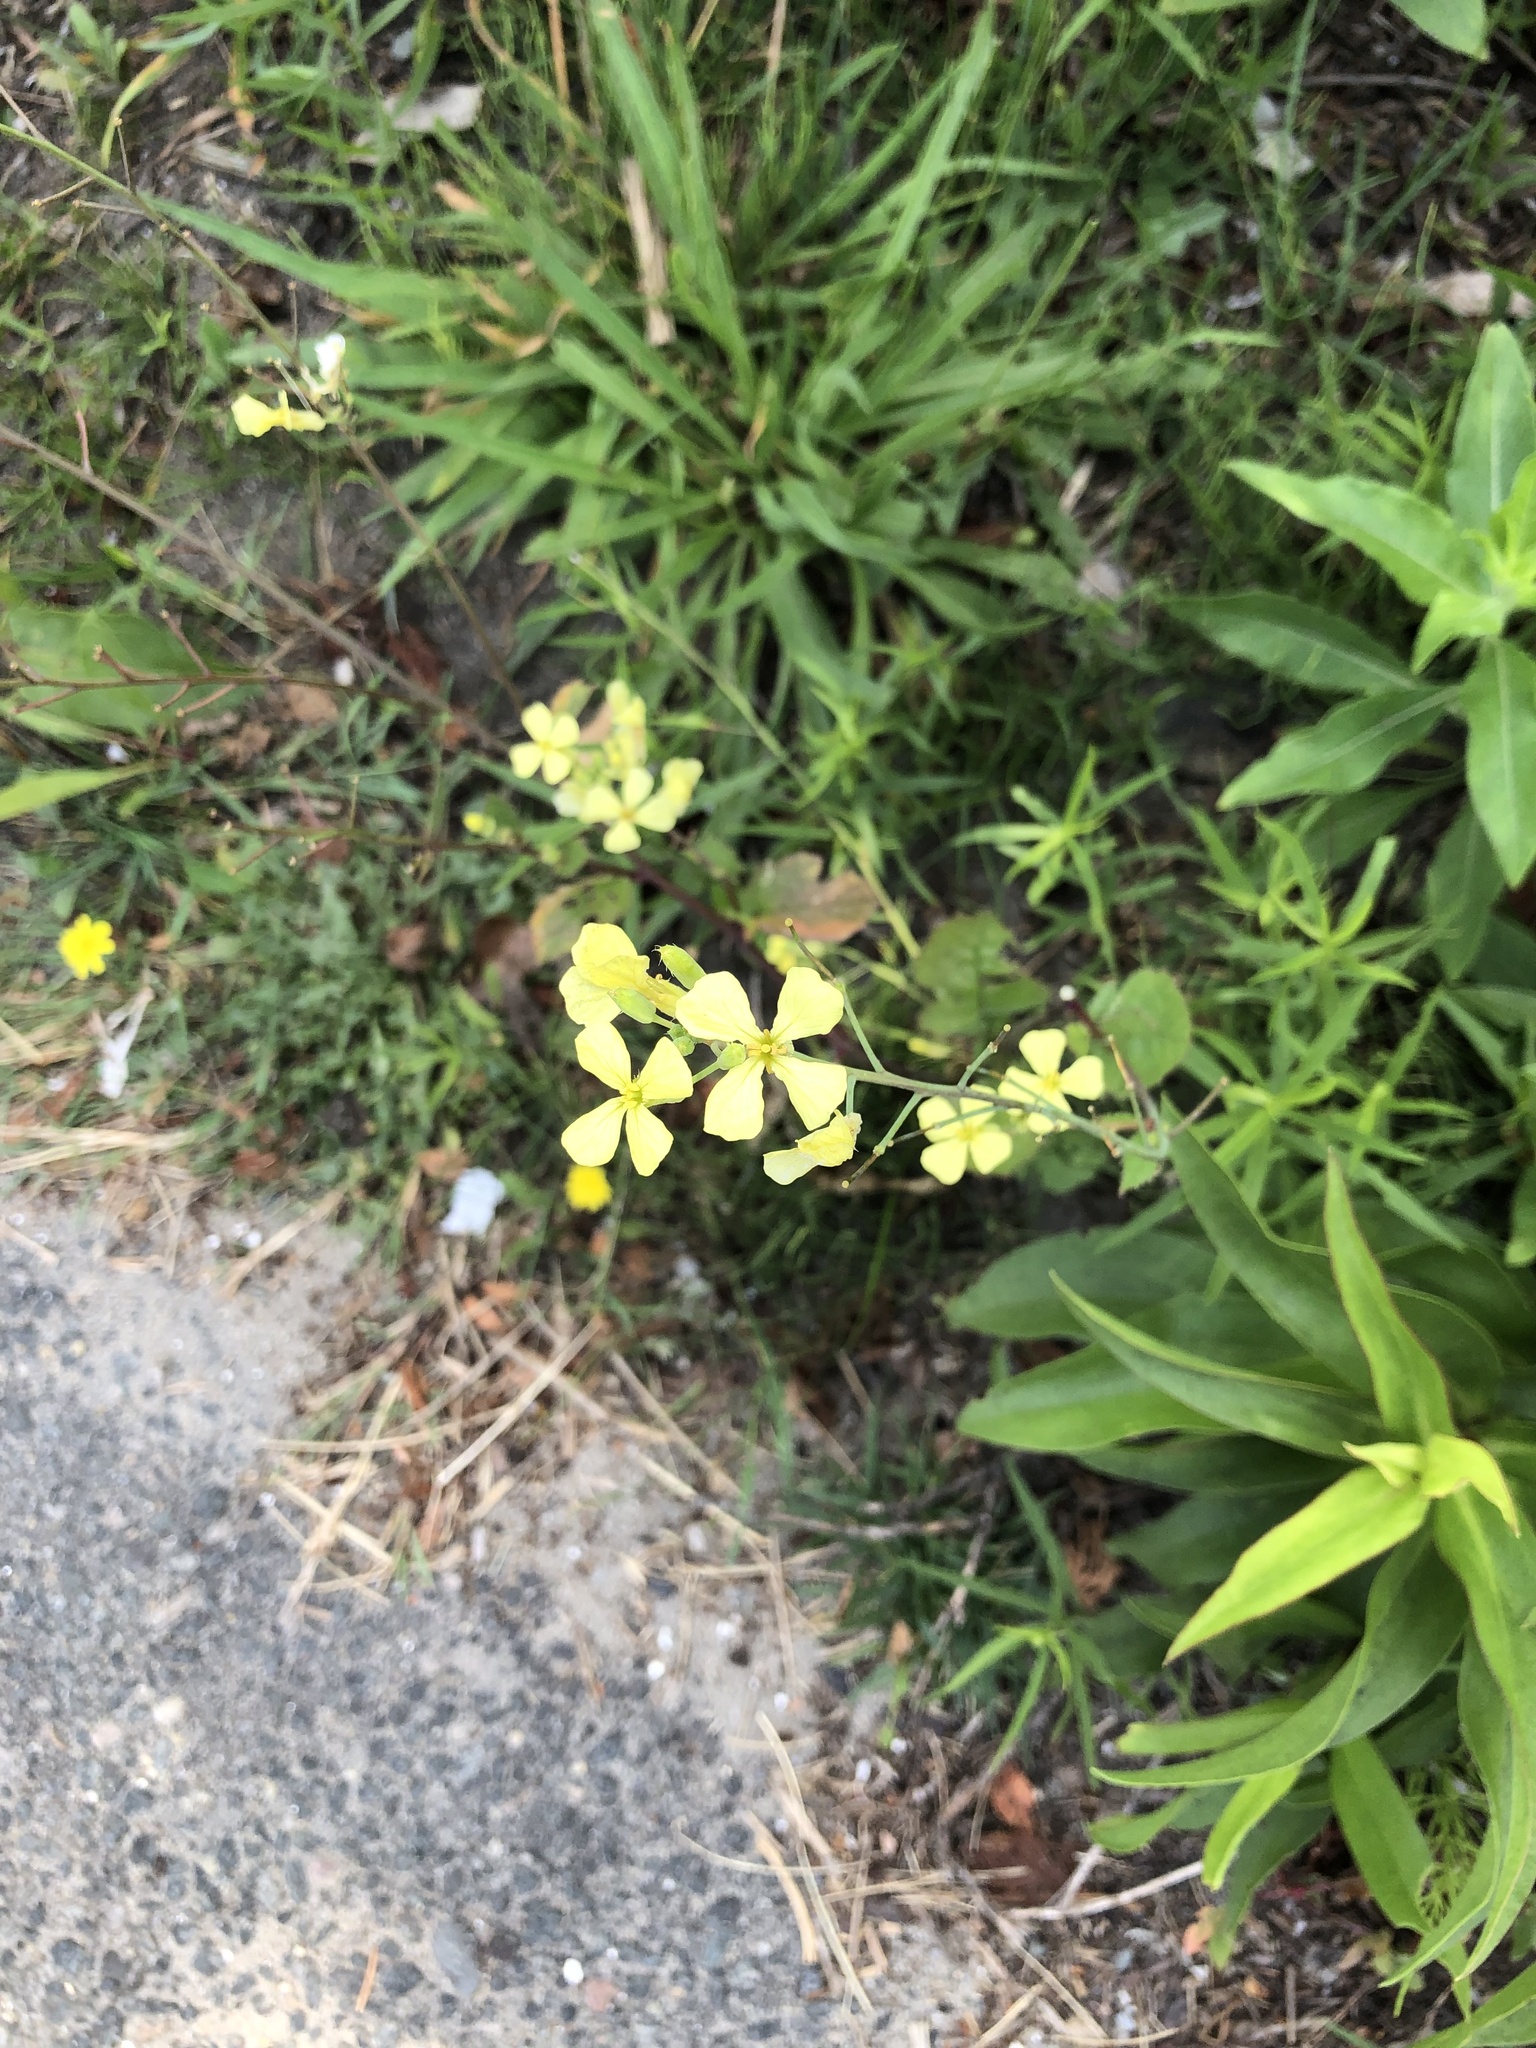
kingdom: Plantae
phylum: Tracheophyta
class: Magnoliopsida
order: Brassicales
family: Brassicaceae
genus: Raphanus
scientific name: Raphanus raphanistrum
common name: Wild radish
